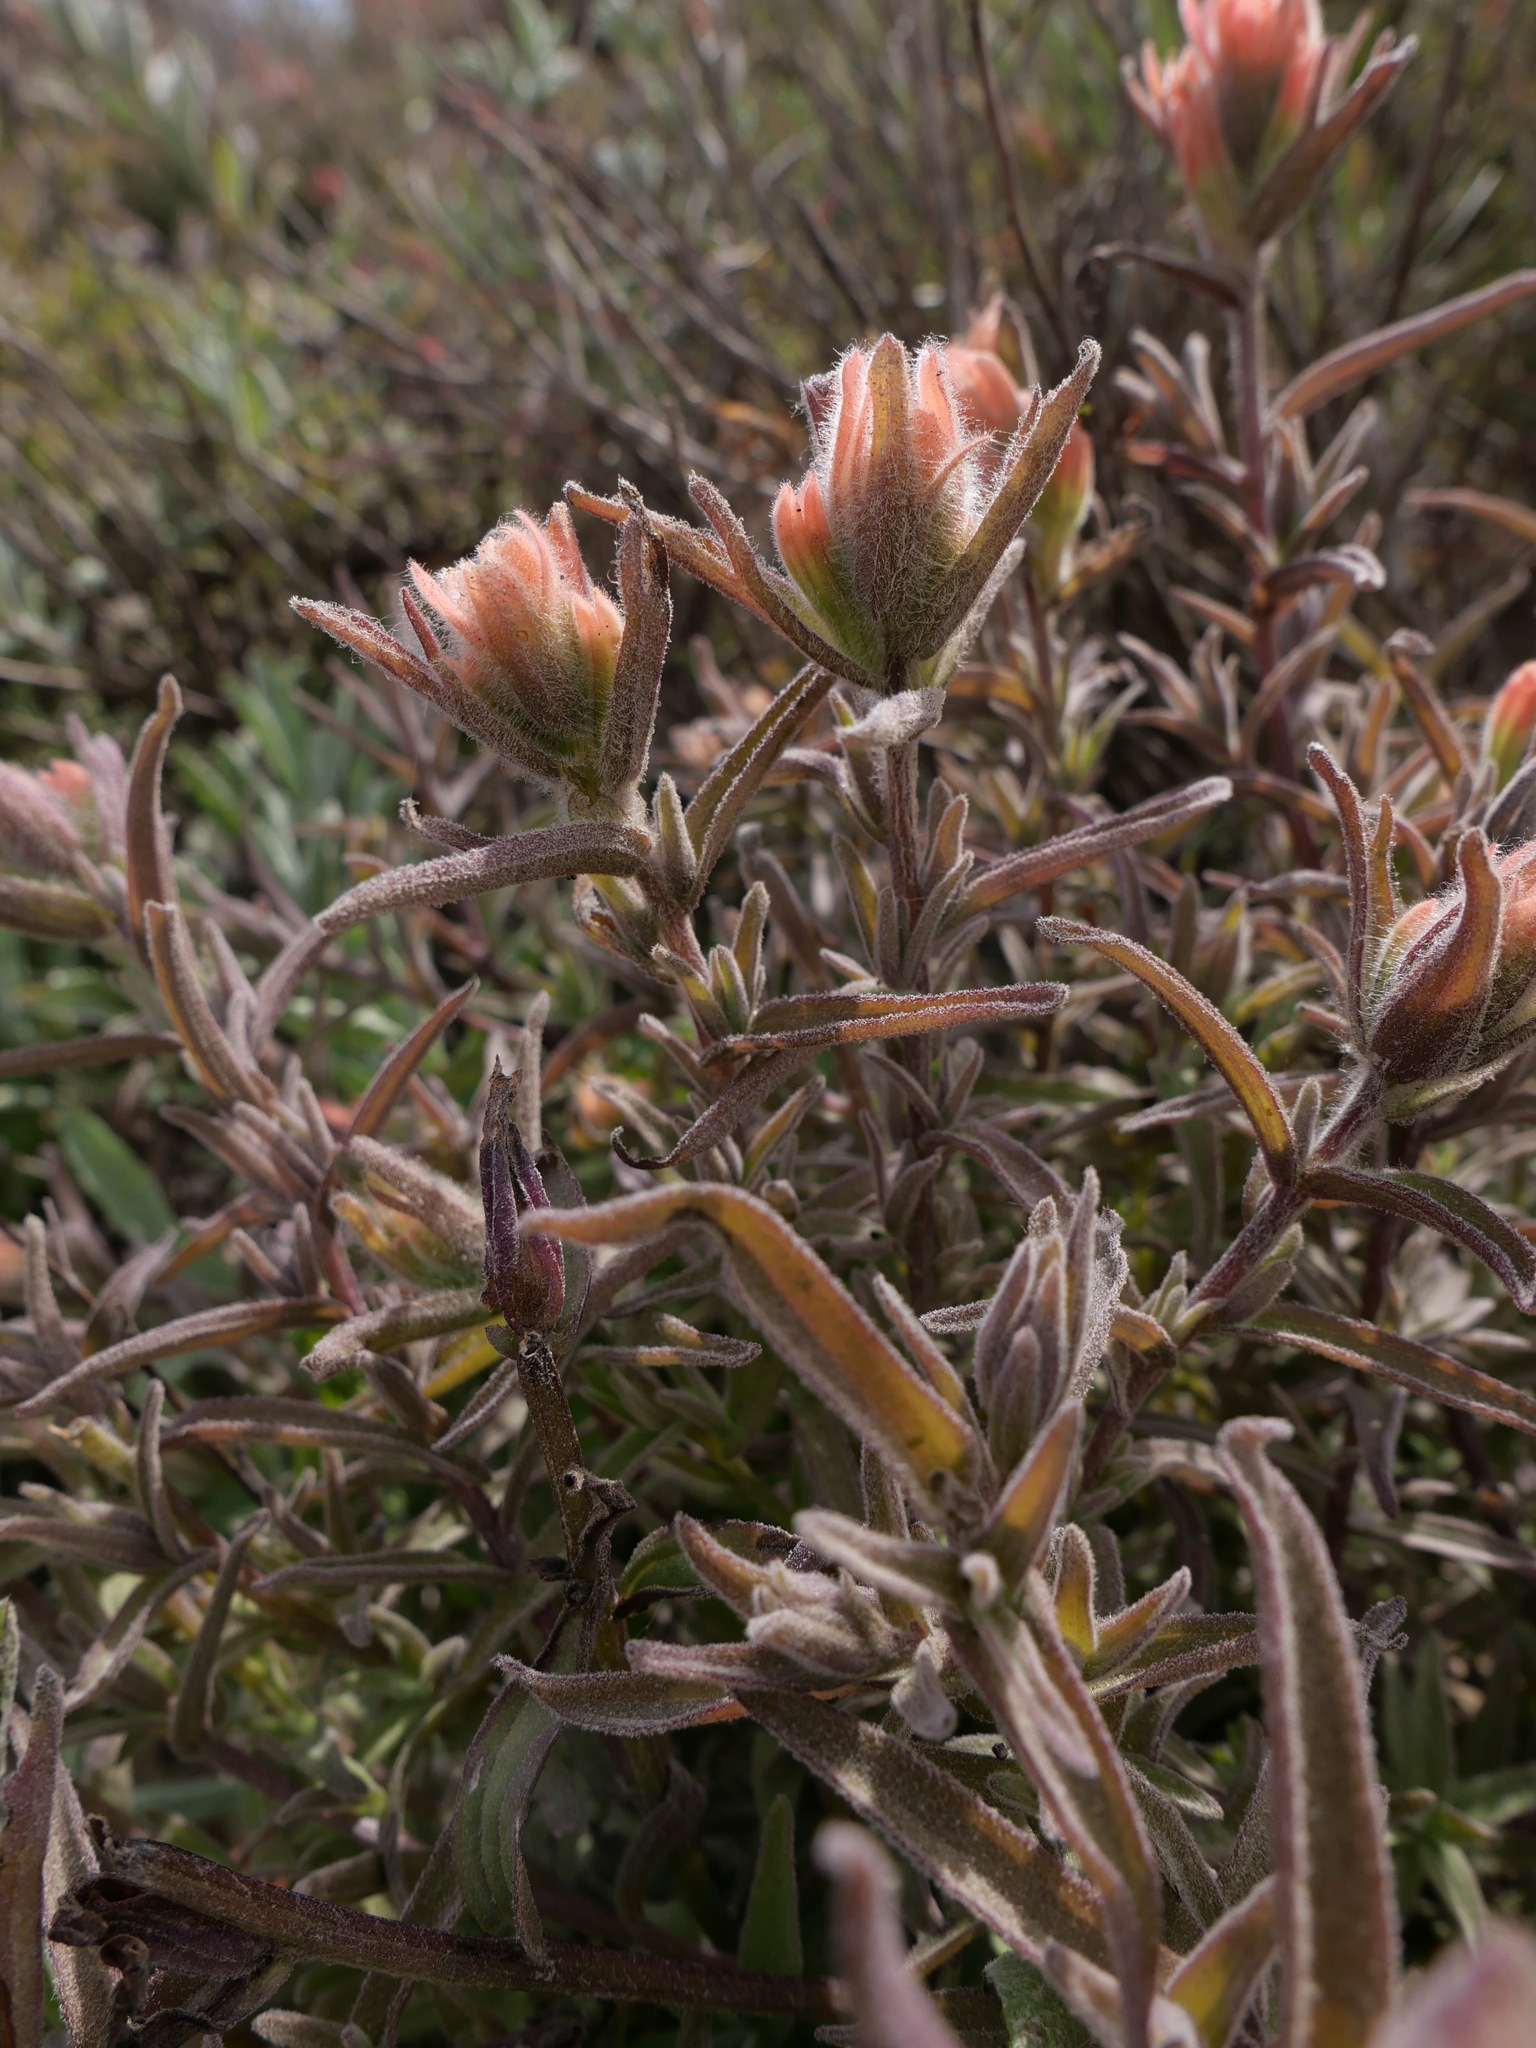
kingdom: Plantae
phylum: Tracheophyta
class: Magnoliopsida
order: Lamiales
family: Orobanchaceae
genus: Castilleja
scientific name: Castilleja affinis
